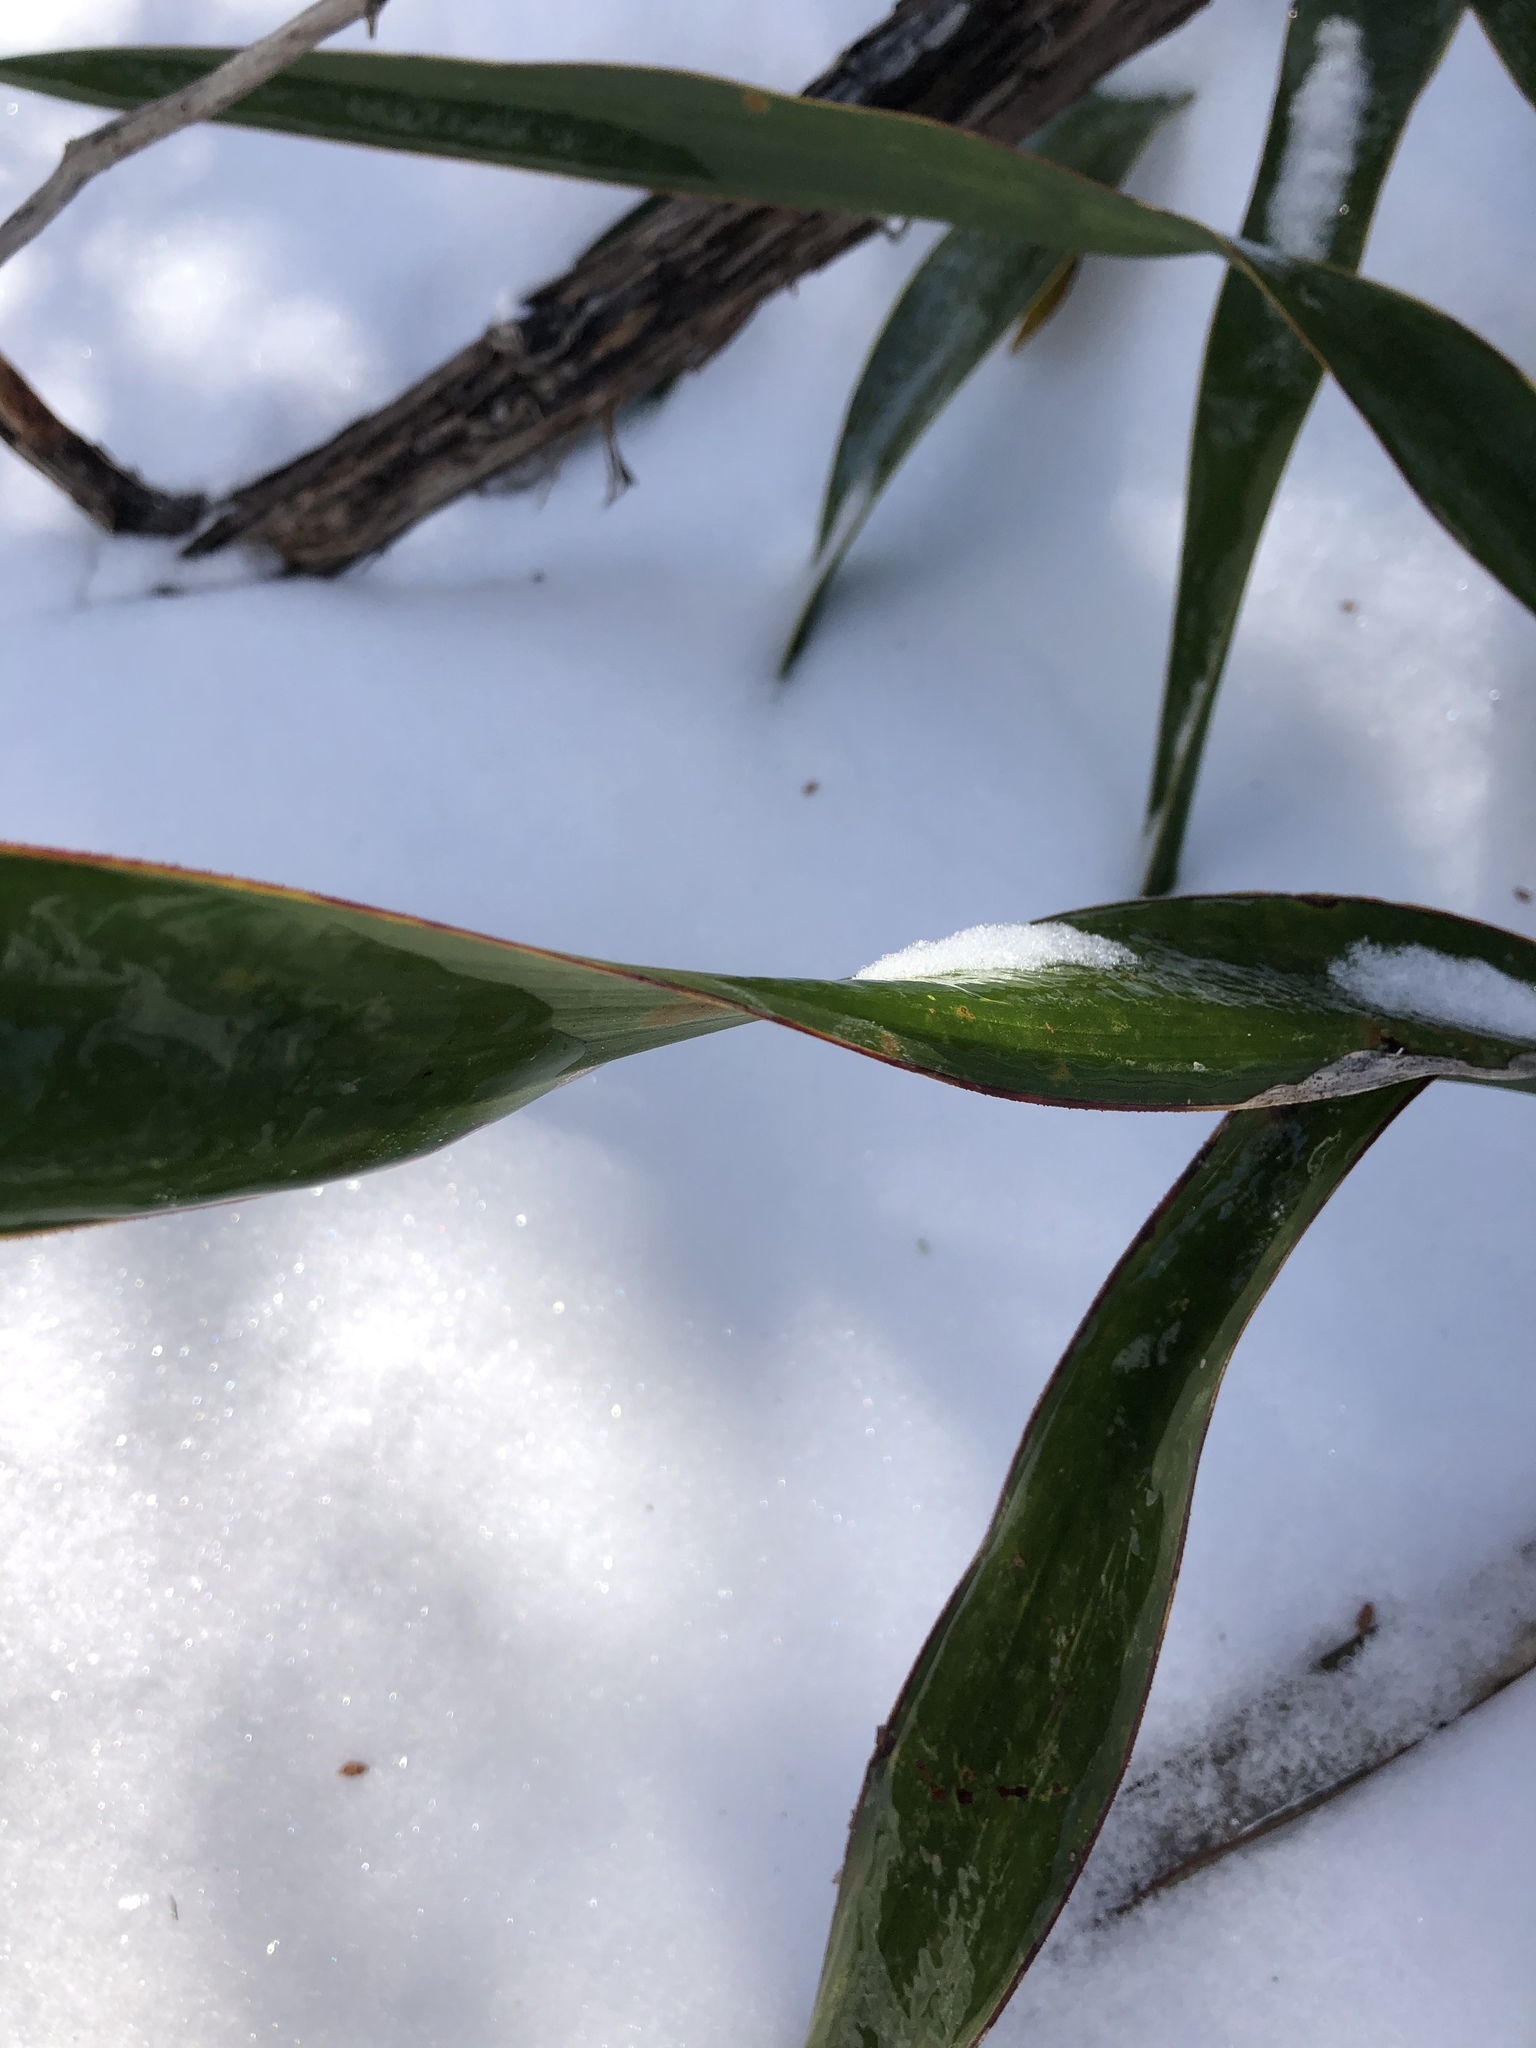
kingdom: Plantae
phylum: Tracheophyta
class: Liliopsida
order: Asparagales
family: Asparagaceae
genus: Yucca
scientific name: Yucca rupicola
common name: Twisted-leaf spanish-dagger
